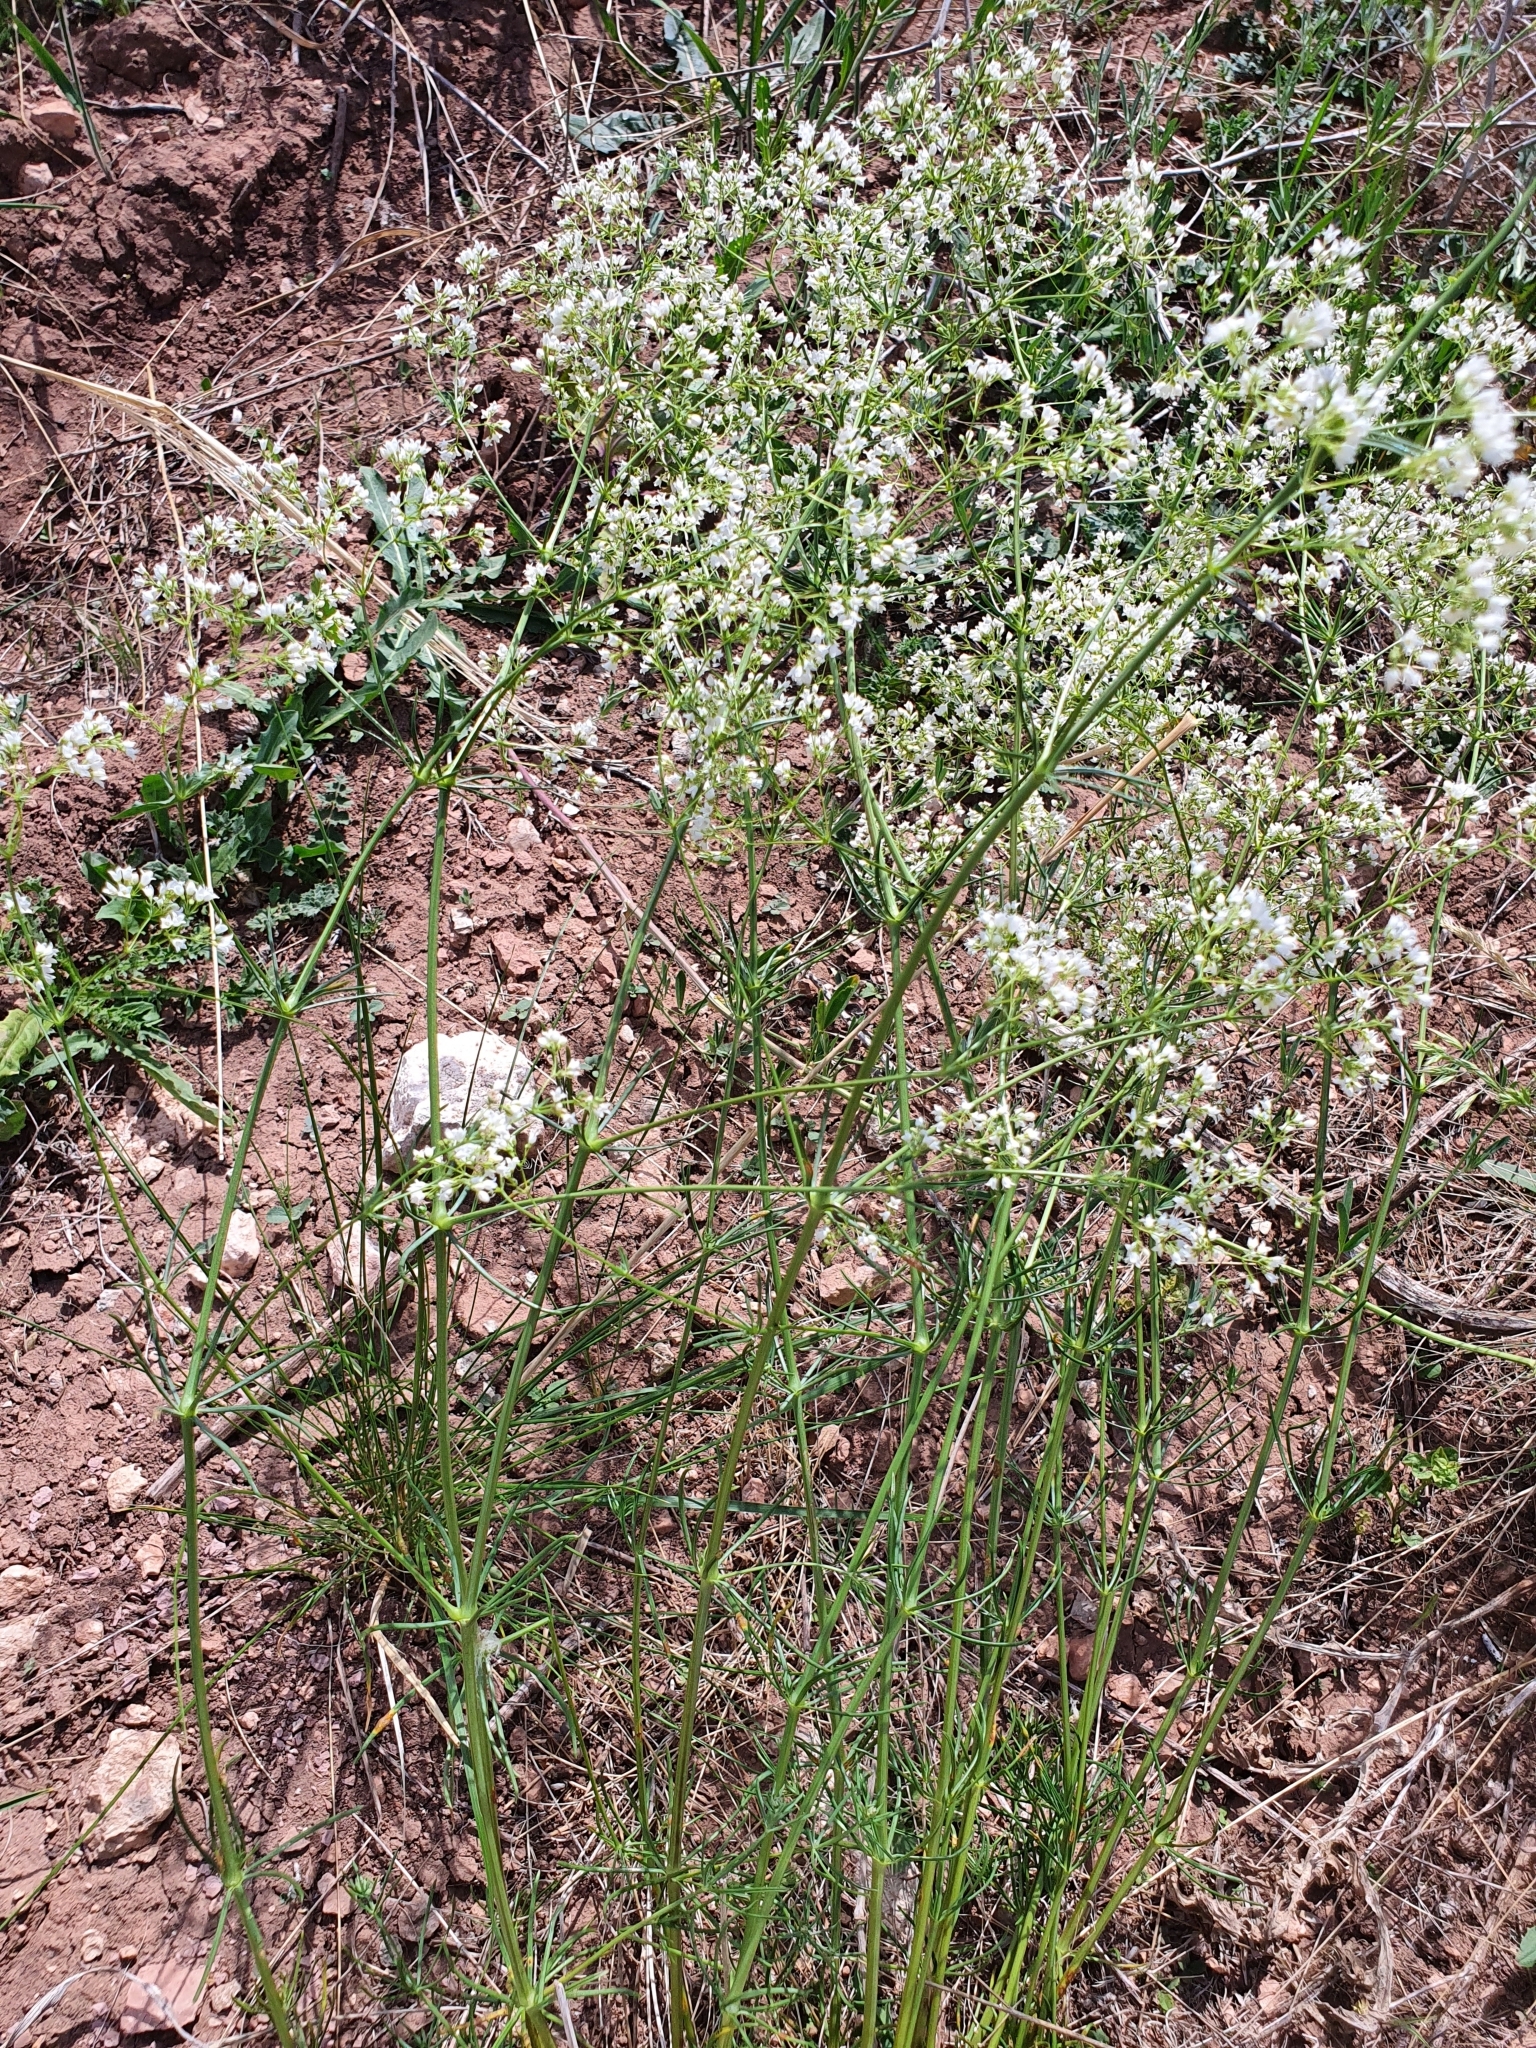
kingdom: Plantae
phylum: Tracheophyta
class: Magnoliopsida
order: Gentianales
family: Rubiaceae
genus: Asperula
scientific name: Asperula tinctoria
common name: Dyer's woodruff
